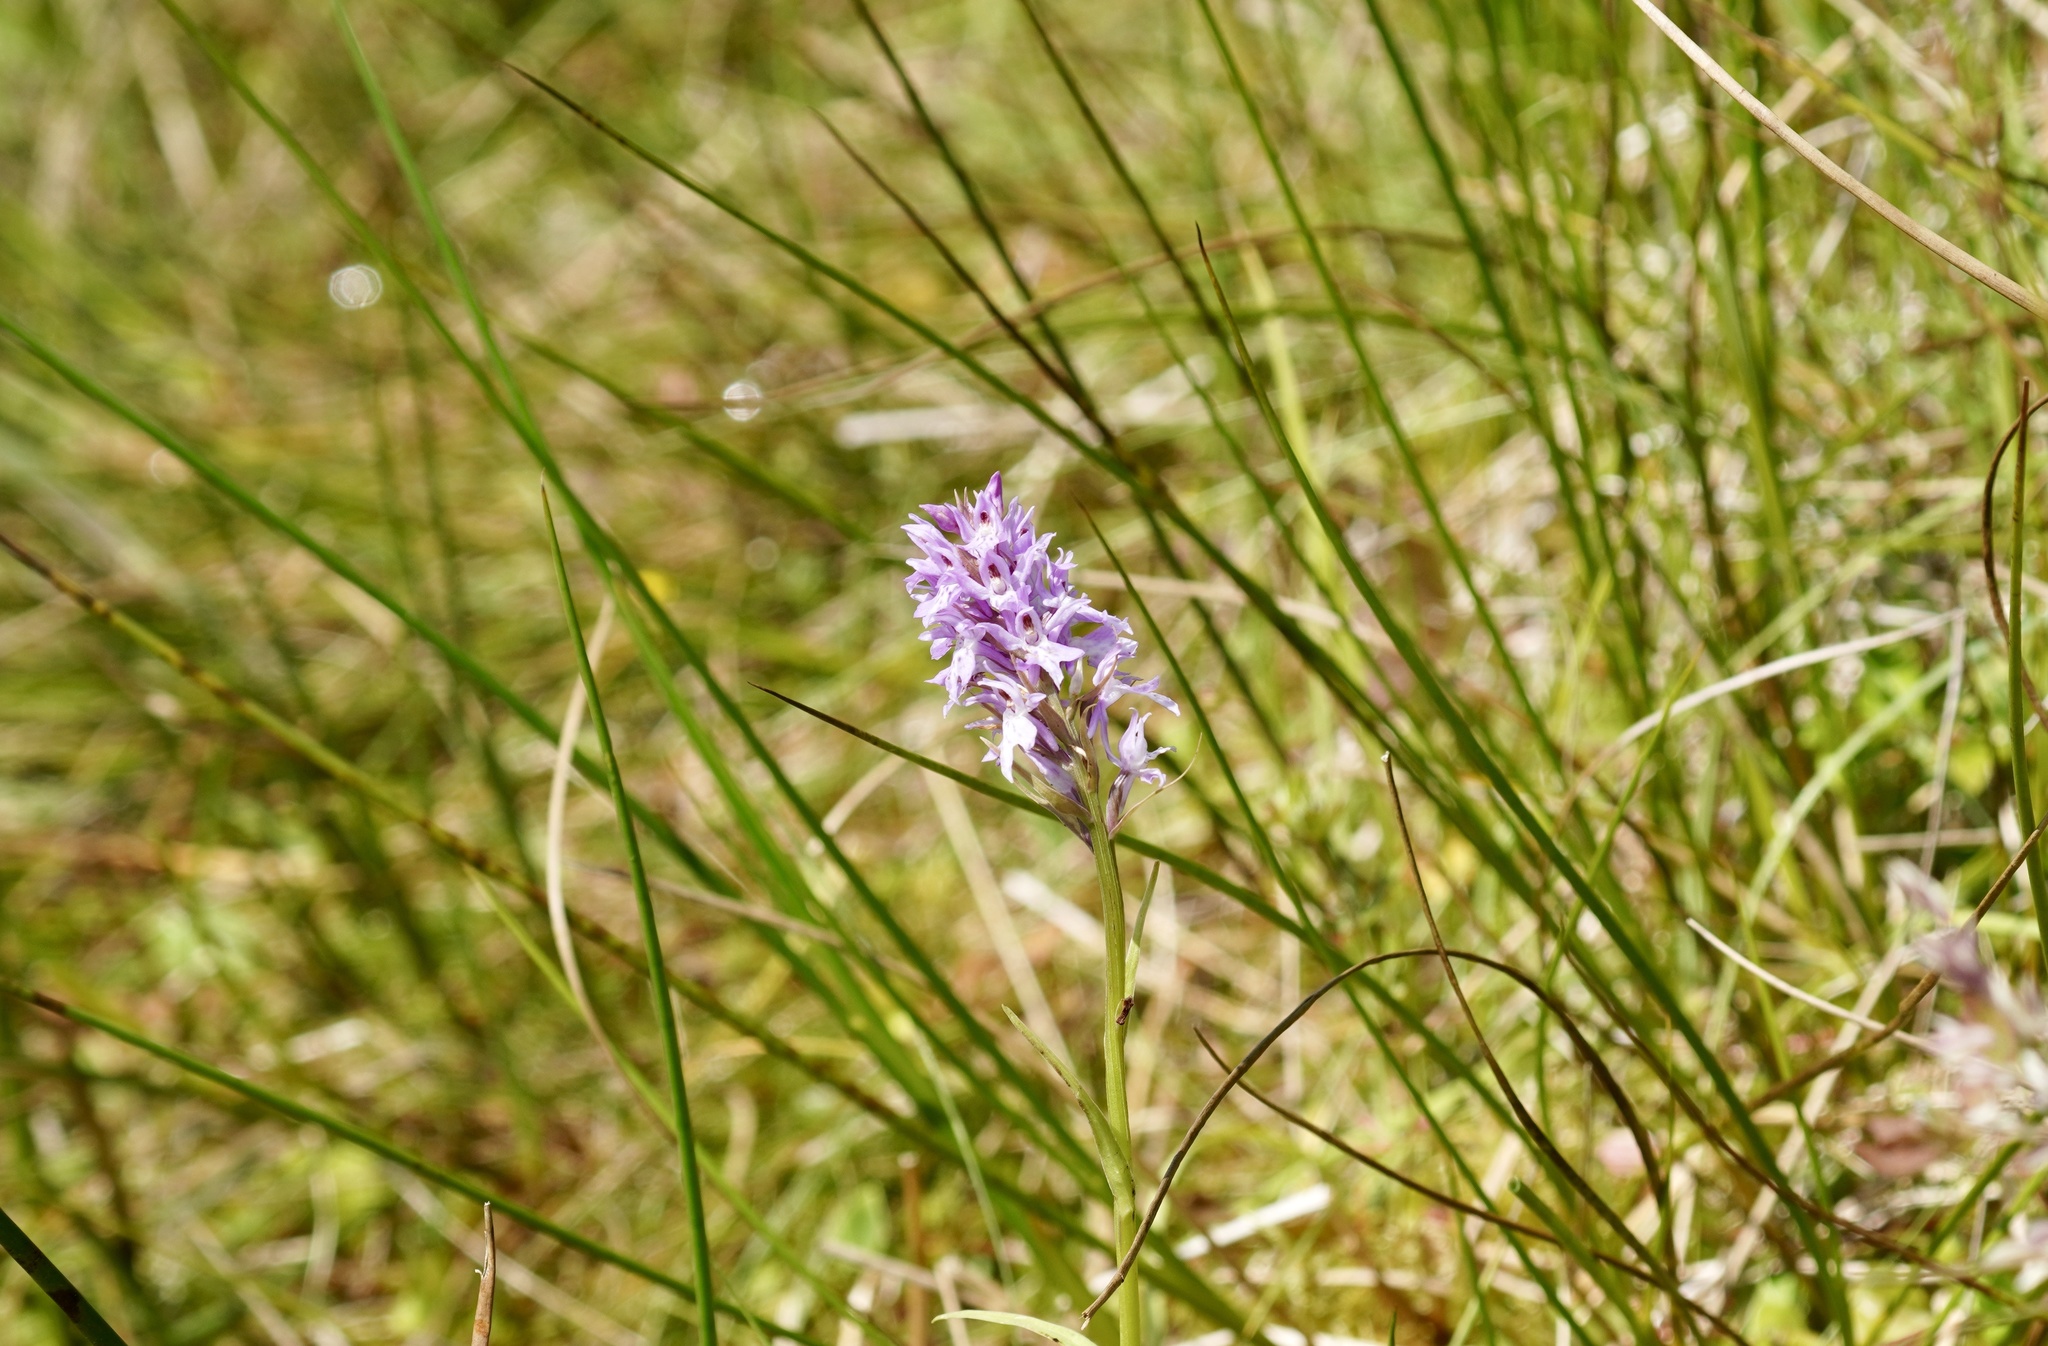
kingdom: Plantae
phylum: Tracheophyta
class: Liliopsida
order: Asparagales
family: Orchidaceae
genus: Dactylorhiza
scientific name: Dactylorhiza maculata
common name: Heath spotted-orchid
